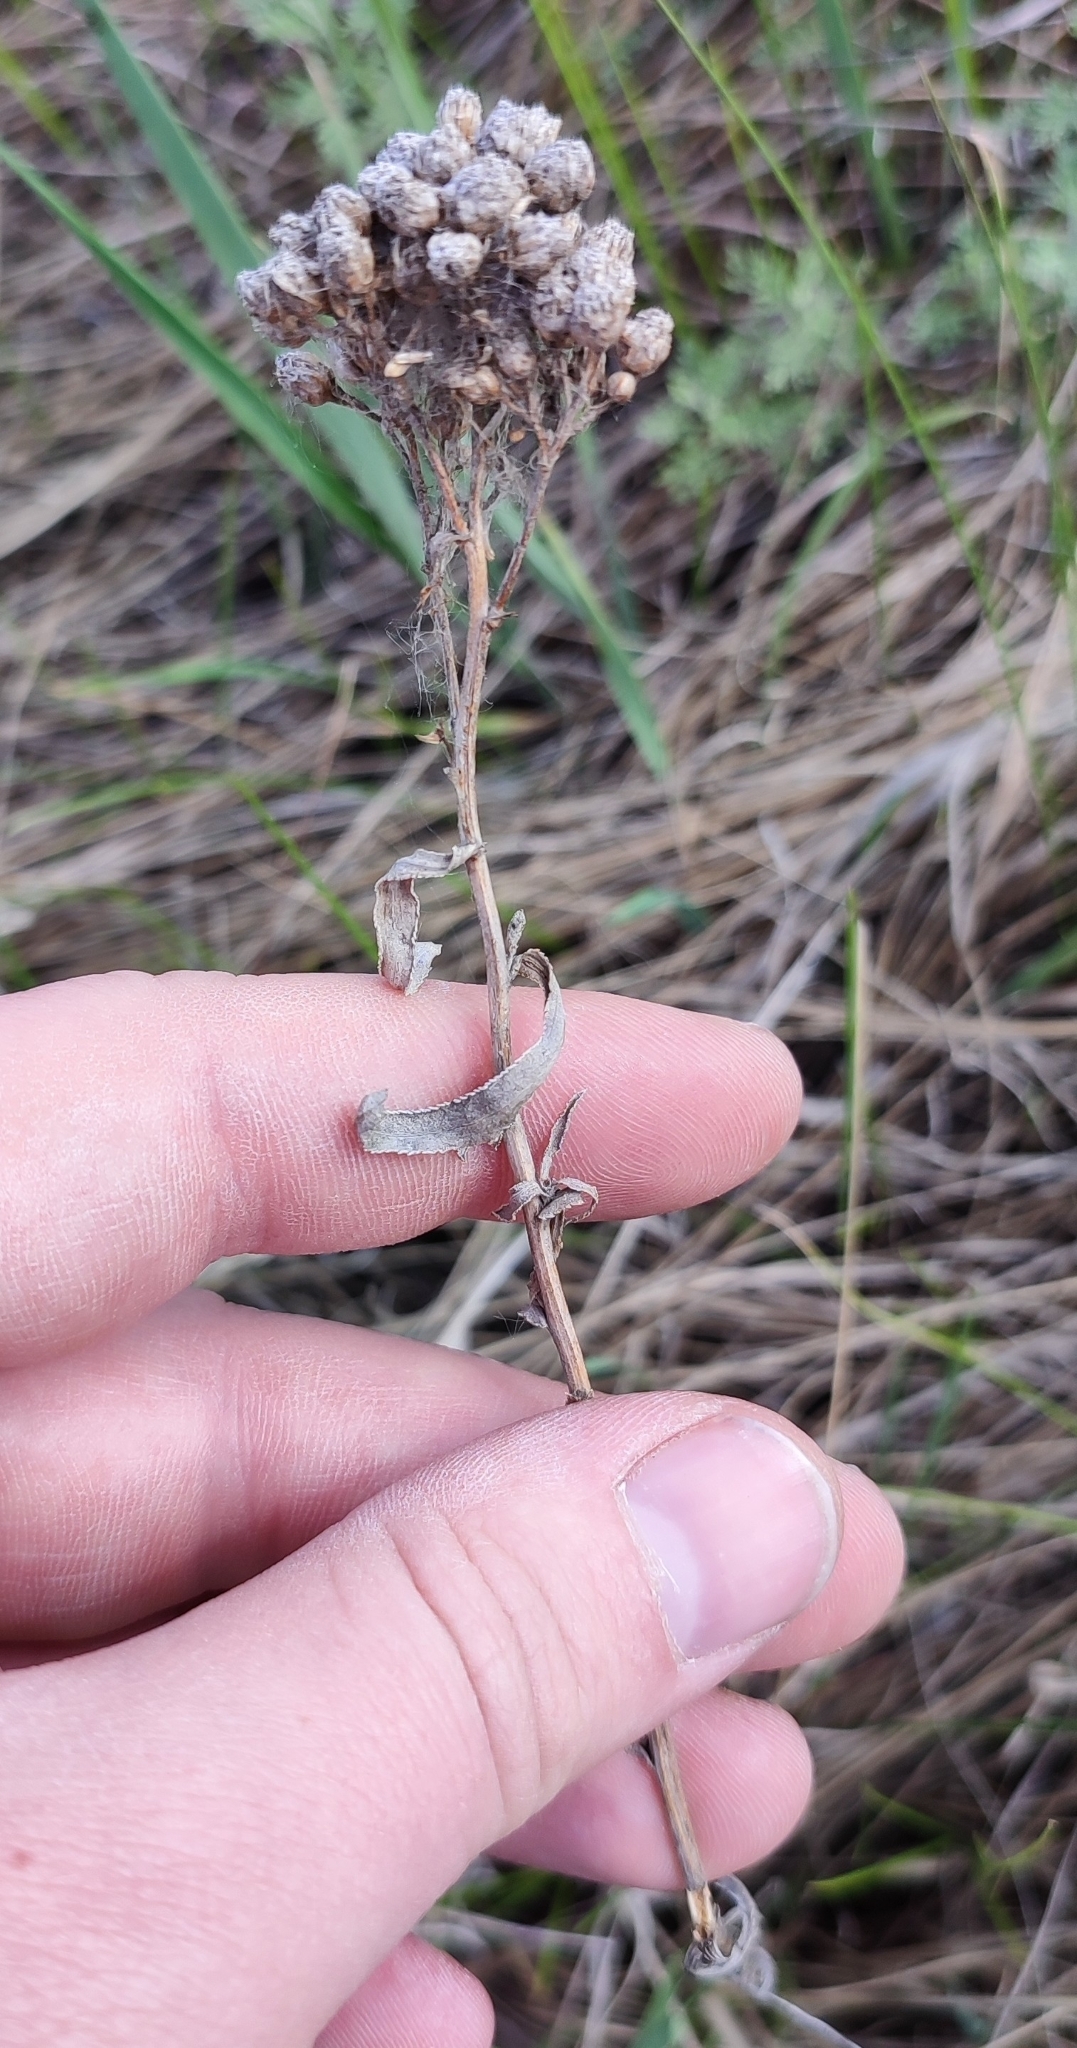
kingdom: Plantae
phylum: Tracheophyta
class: Magnoliopsida
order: Asterales
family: Asteraceae
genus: Achillea
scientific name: Achillea salicifolia
